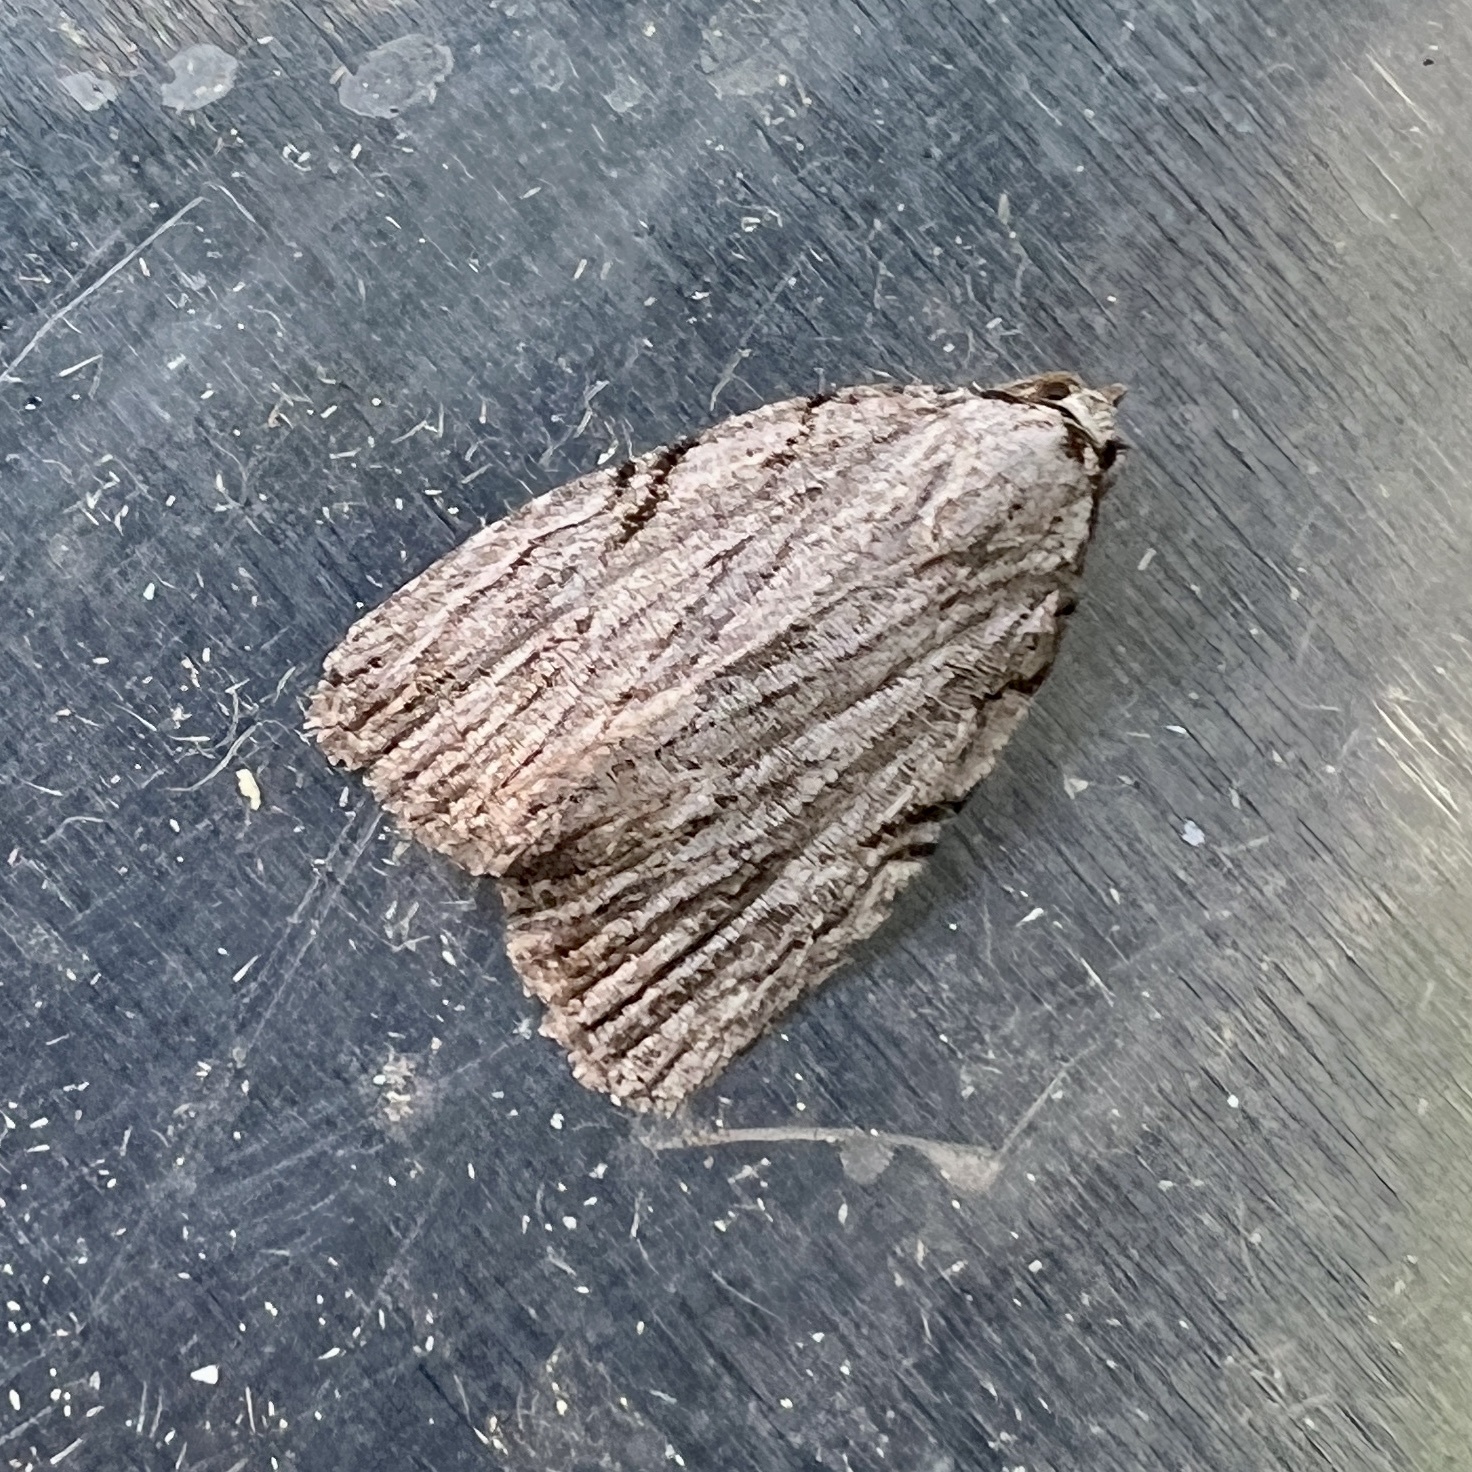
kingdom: Animalia
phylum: Arthropoda
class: Insecta
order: Lepidoptera
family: Noctuidae
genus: Balsa
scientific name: Balsa tristrigella
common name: Three-lined balsa moth
